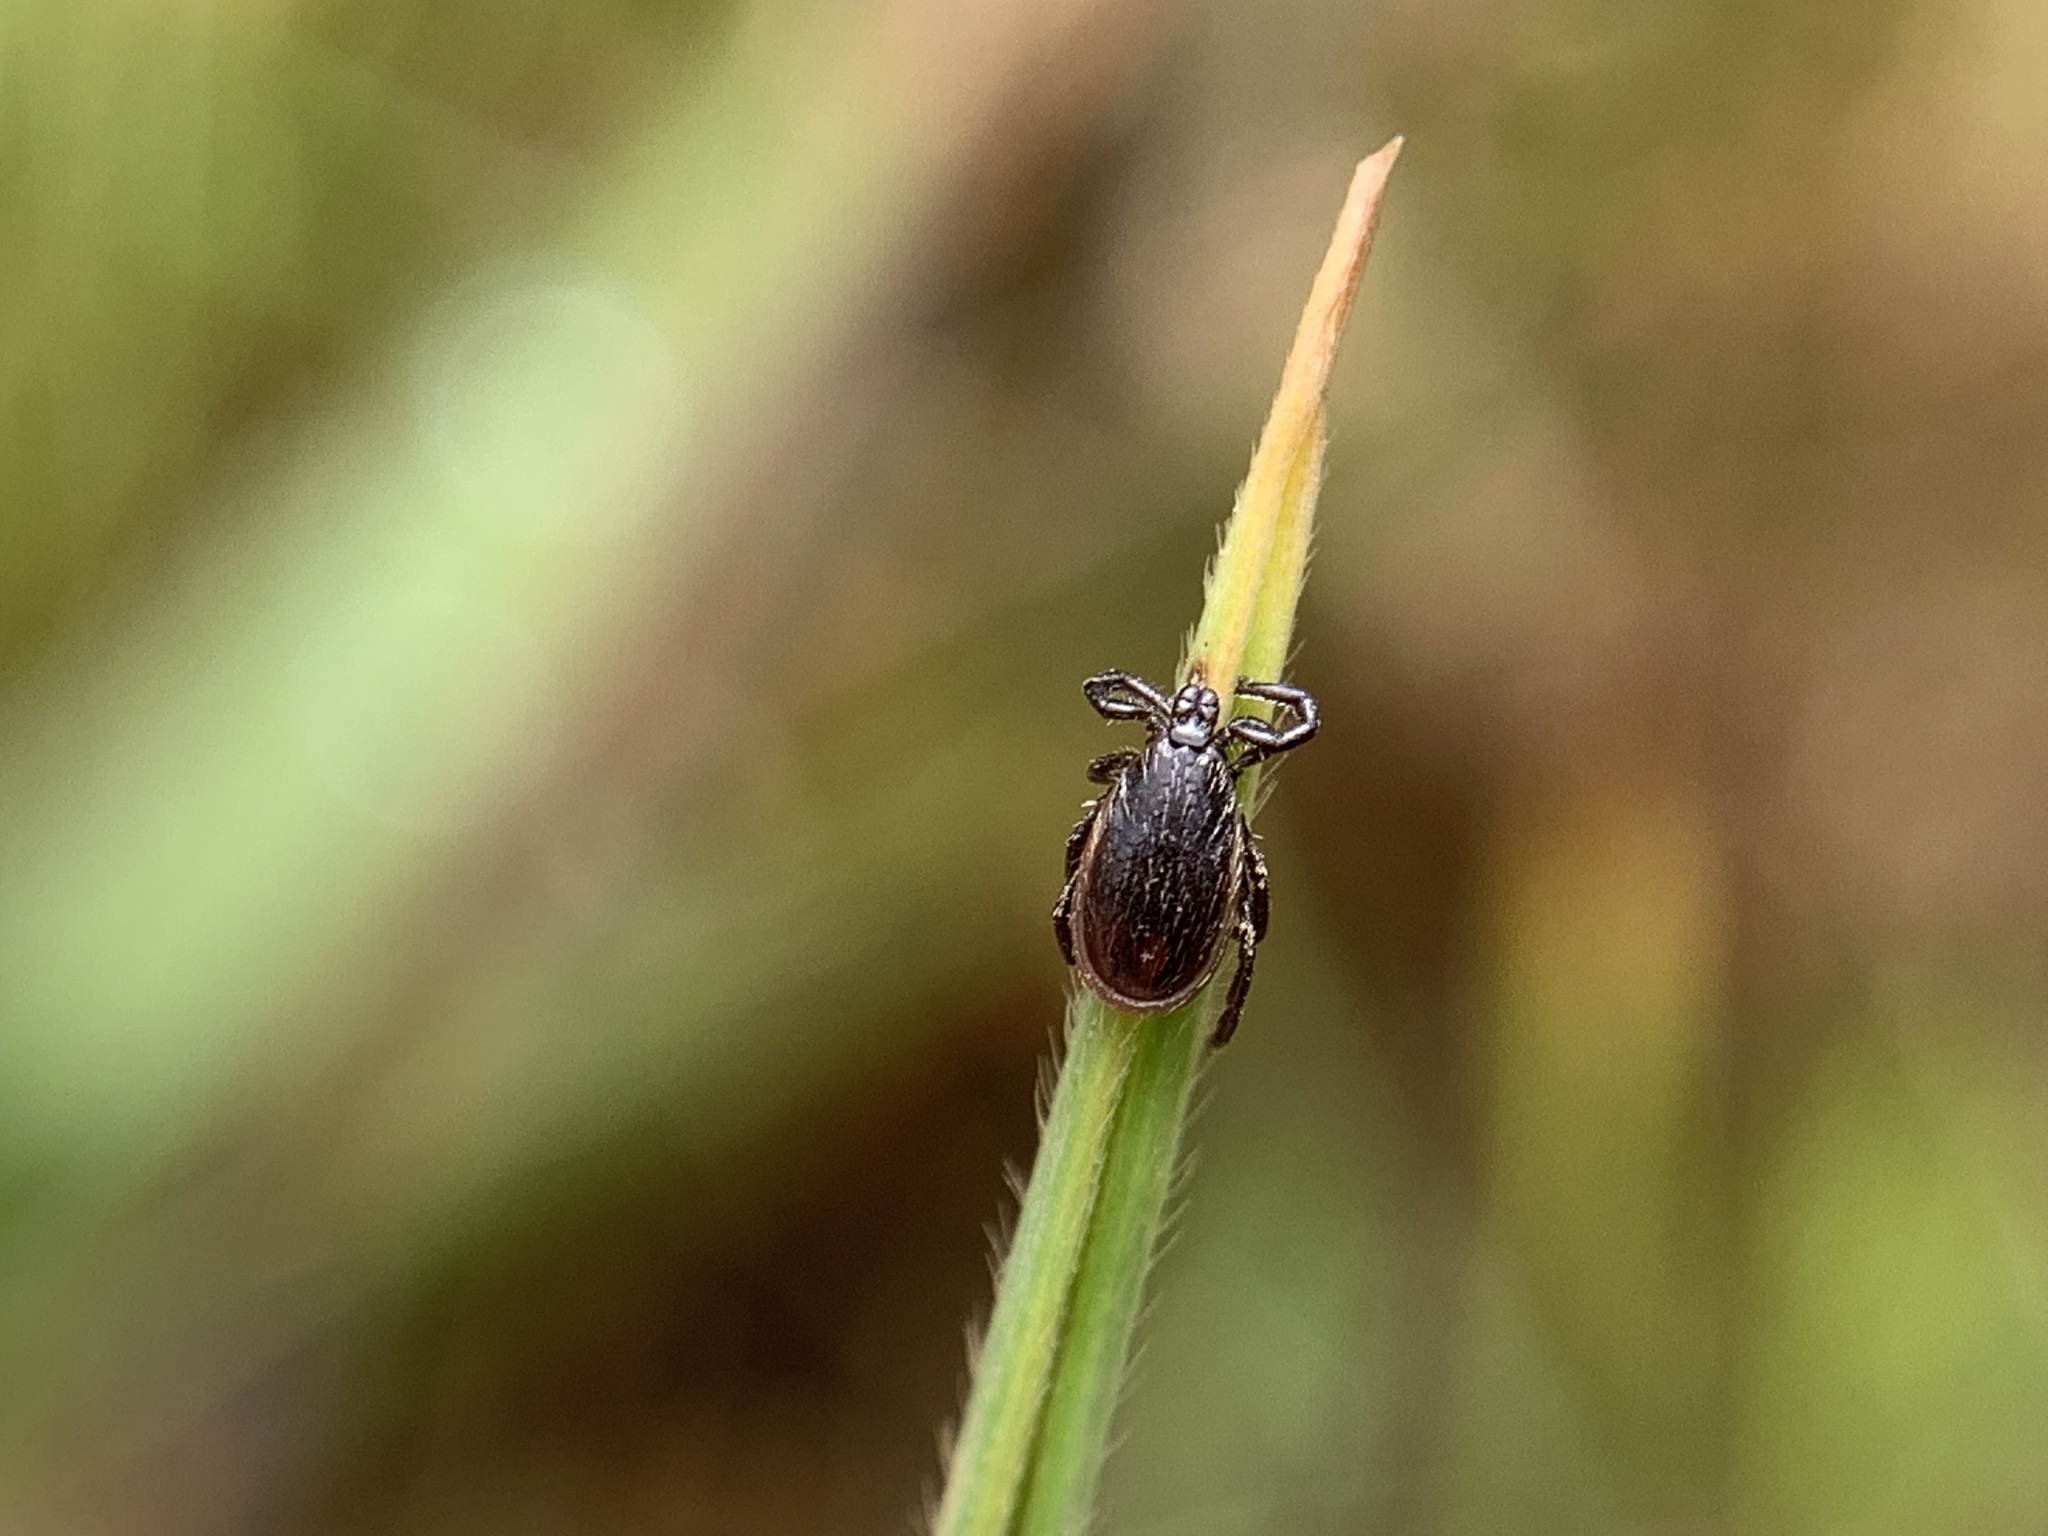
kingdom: Animalia
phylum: Arthropoda
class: Arachnida
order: Ixodida
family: Ixodidae
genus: Ixodes
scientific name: Ixodes pacificus
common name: California black-legged tick
